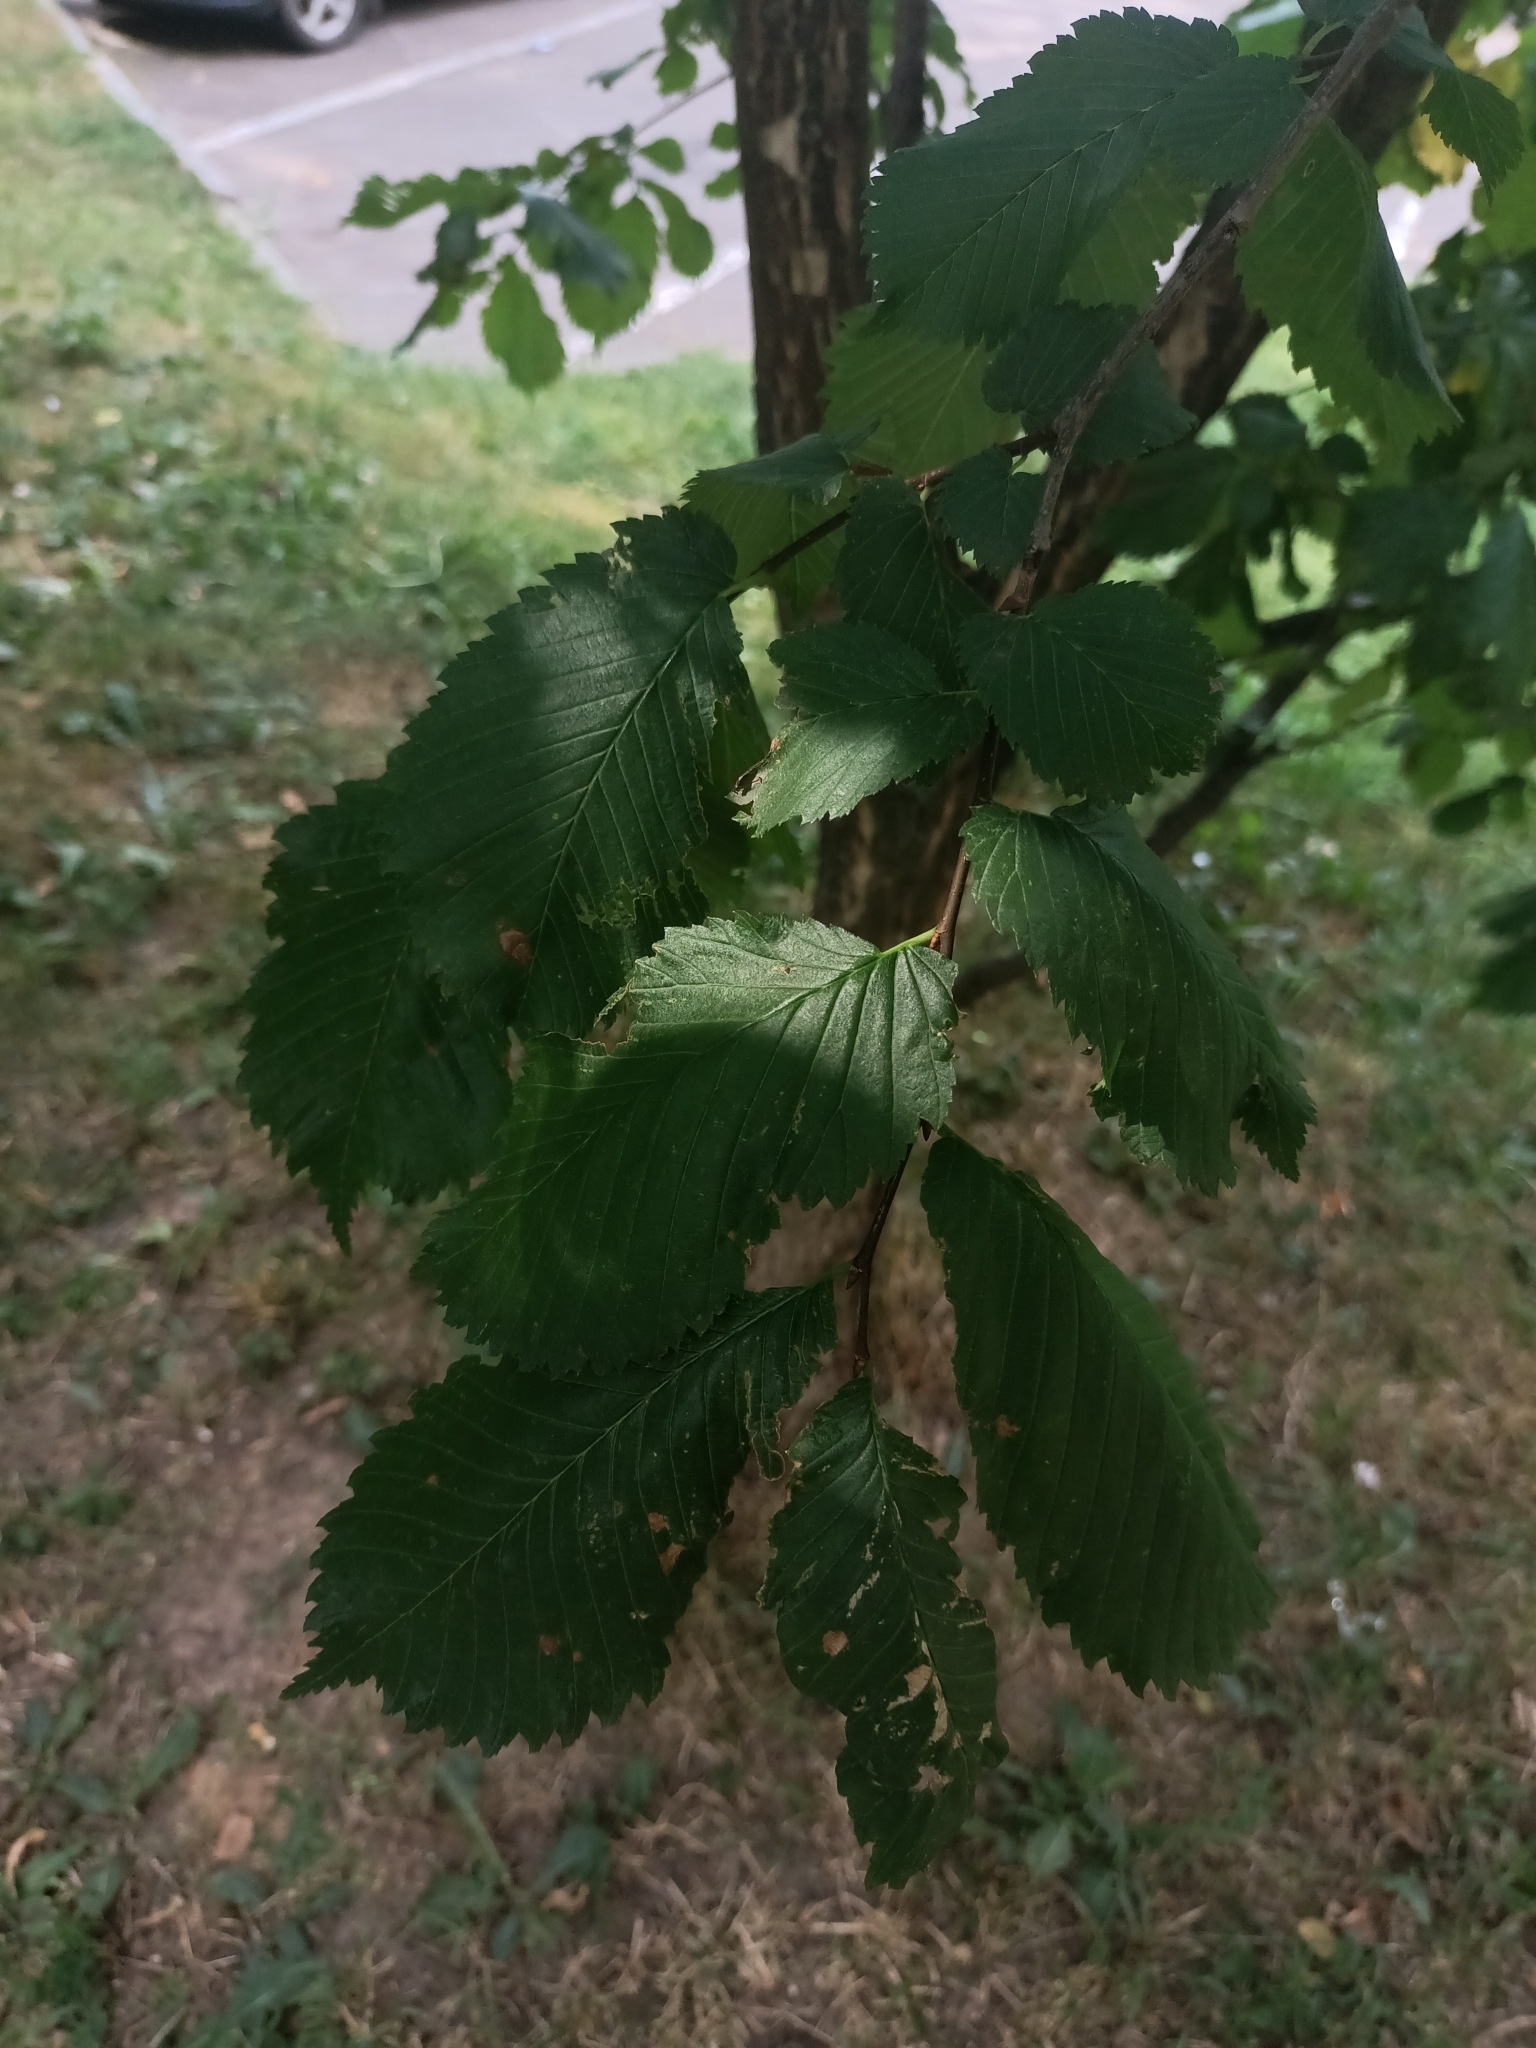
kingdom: Plantae
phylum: Tracheophyta
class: Magnoliopsida
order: Rosales
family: Ulmaceae
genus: Ulmus
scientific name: Ulmus laevis
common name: European white-elm
